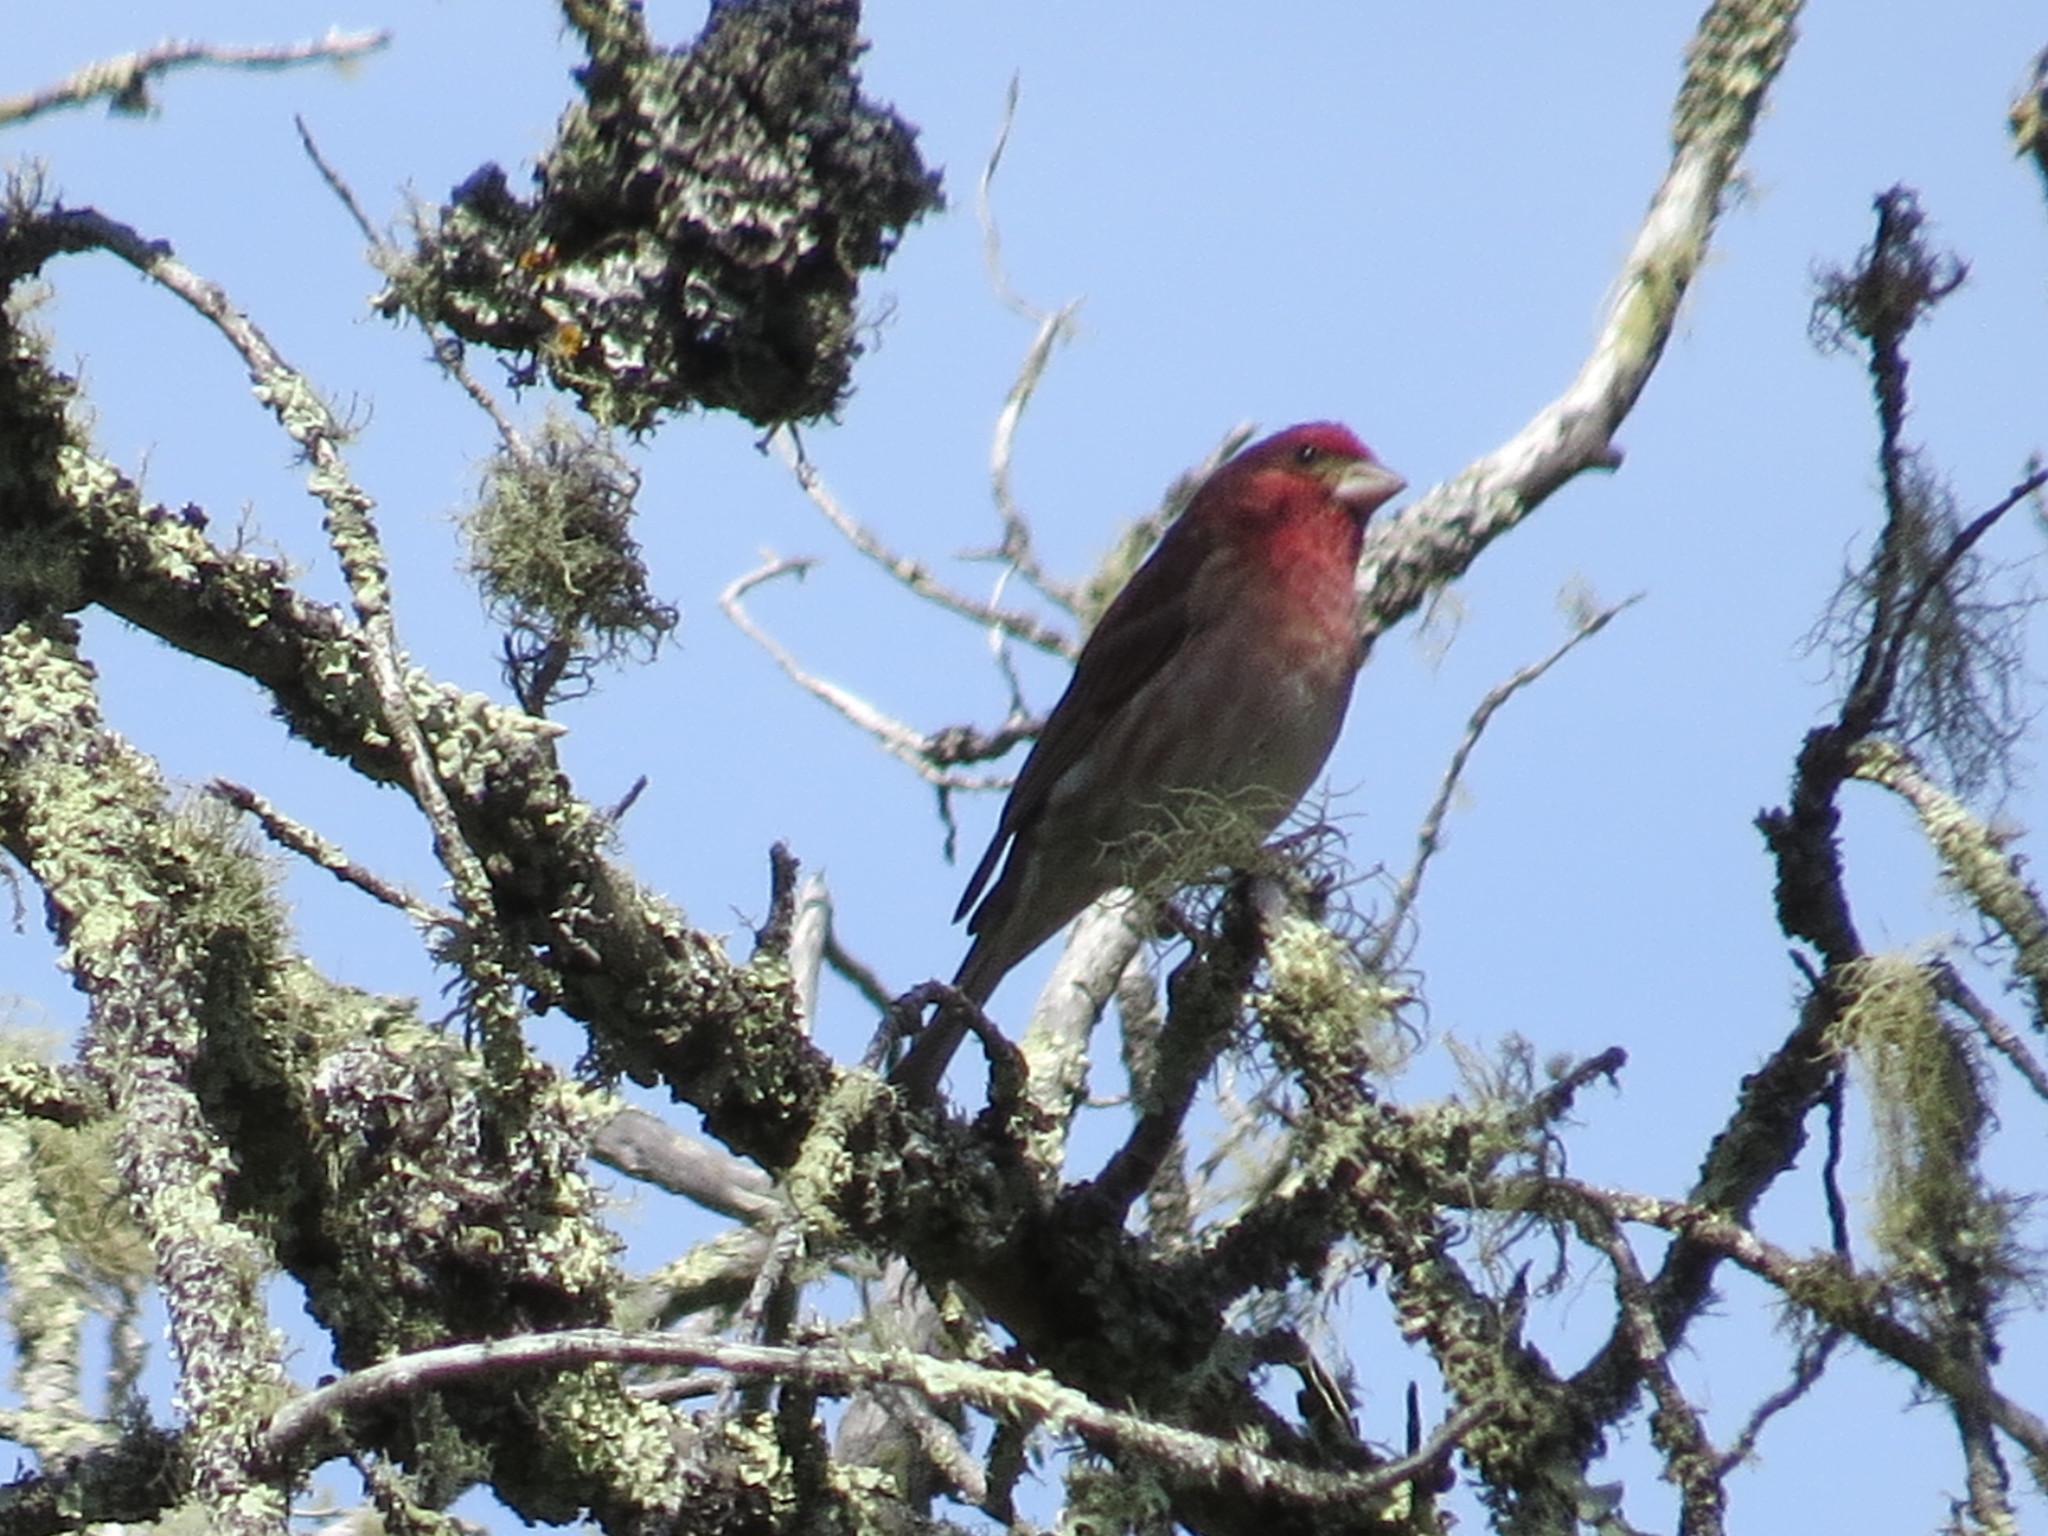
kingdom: Animalia
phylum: Chordata
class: Aves
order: Passeriformes
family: Fringillidae
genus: Haemorhous
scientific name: Haemorhous purpureus
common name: Purple finch
